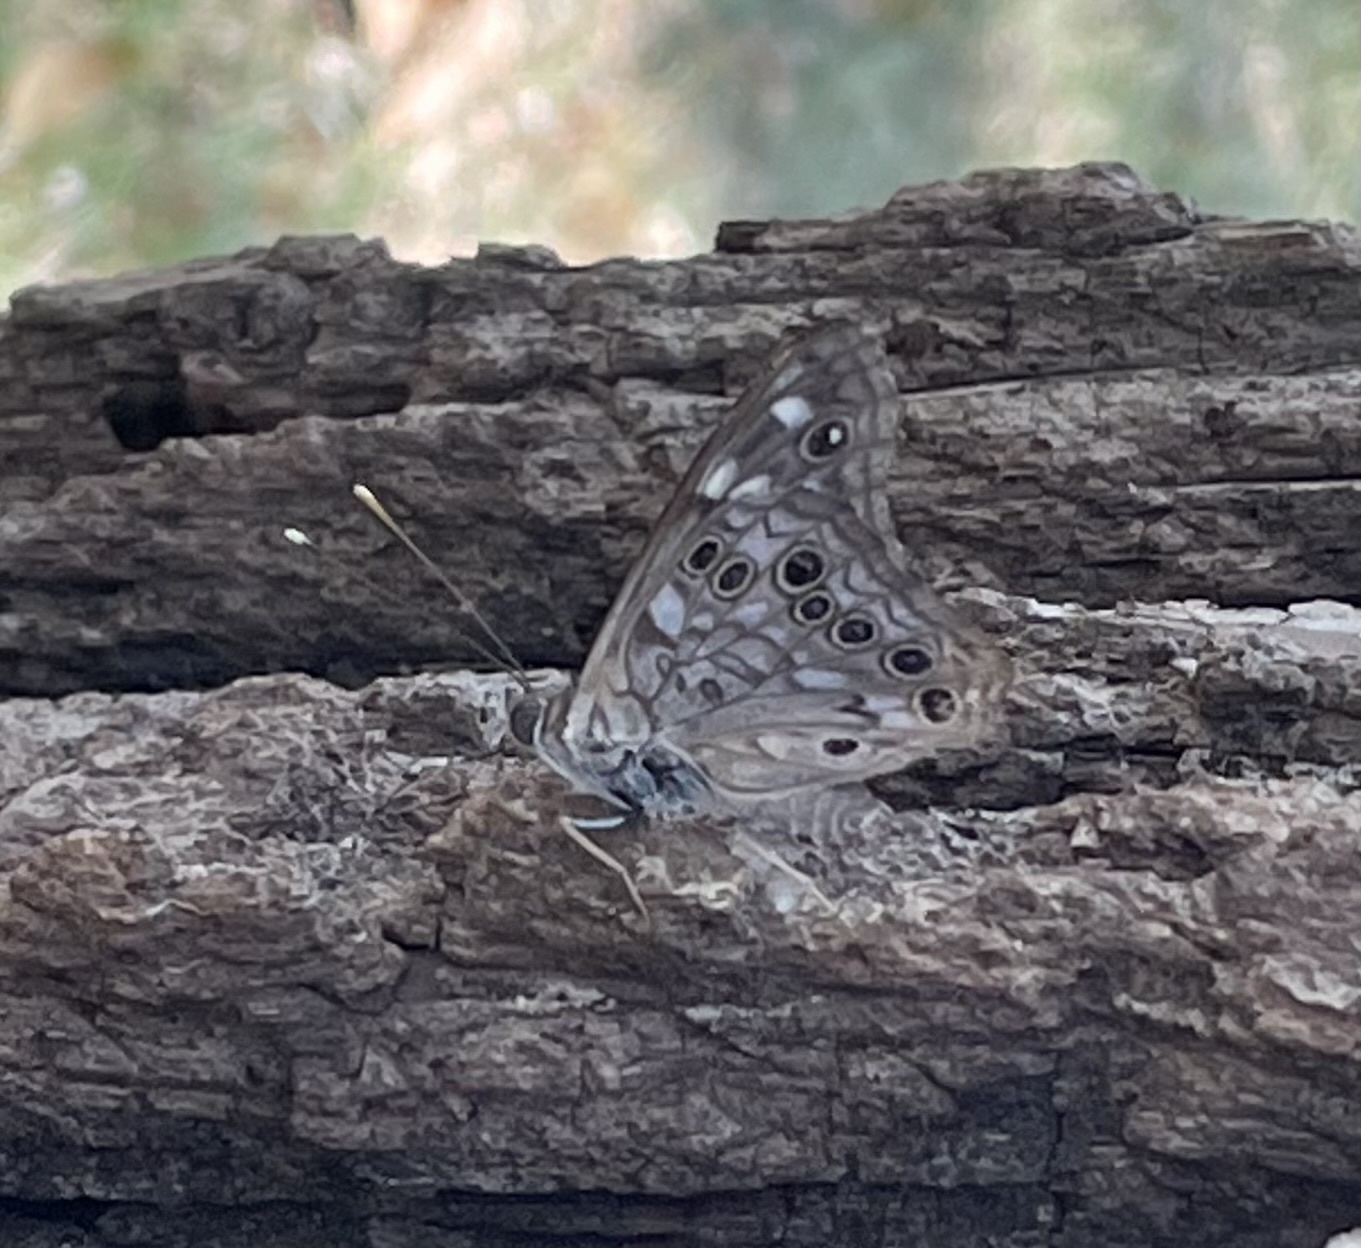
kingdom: Animalia
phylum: Arthropoda
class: Insecta
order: Lepidoptera
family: Nymphalidae
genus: Asterocampa
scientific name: Asterocampa celtis
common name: Hackberry emperor
